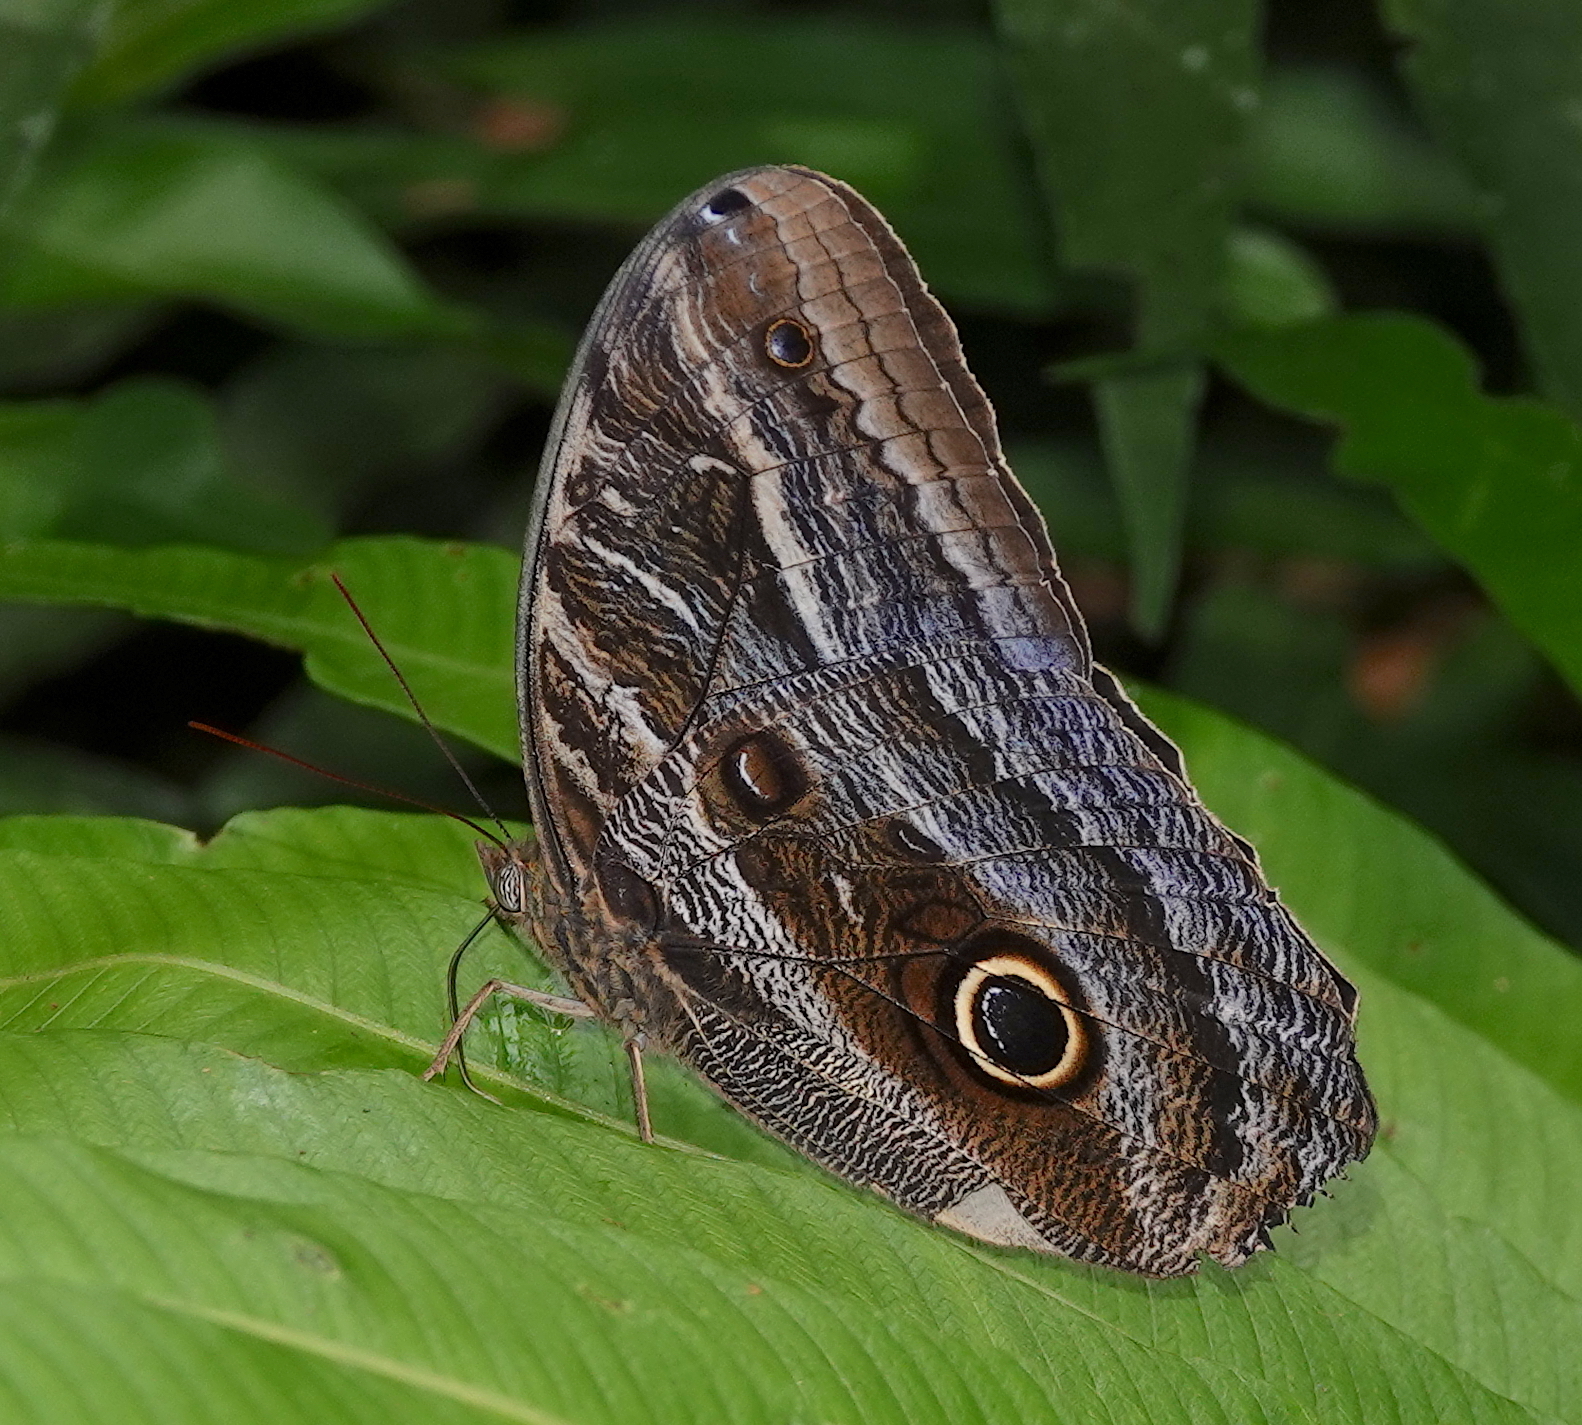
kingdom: Animalia
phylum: Arthropoda
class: Insecta
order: Lepidoptera
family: Nymphalidae
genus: Caligo
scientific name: Caligo teucer
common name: Teucer owl butterfly
